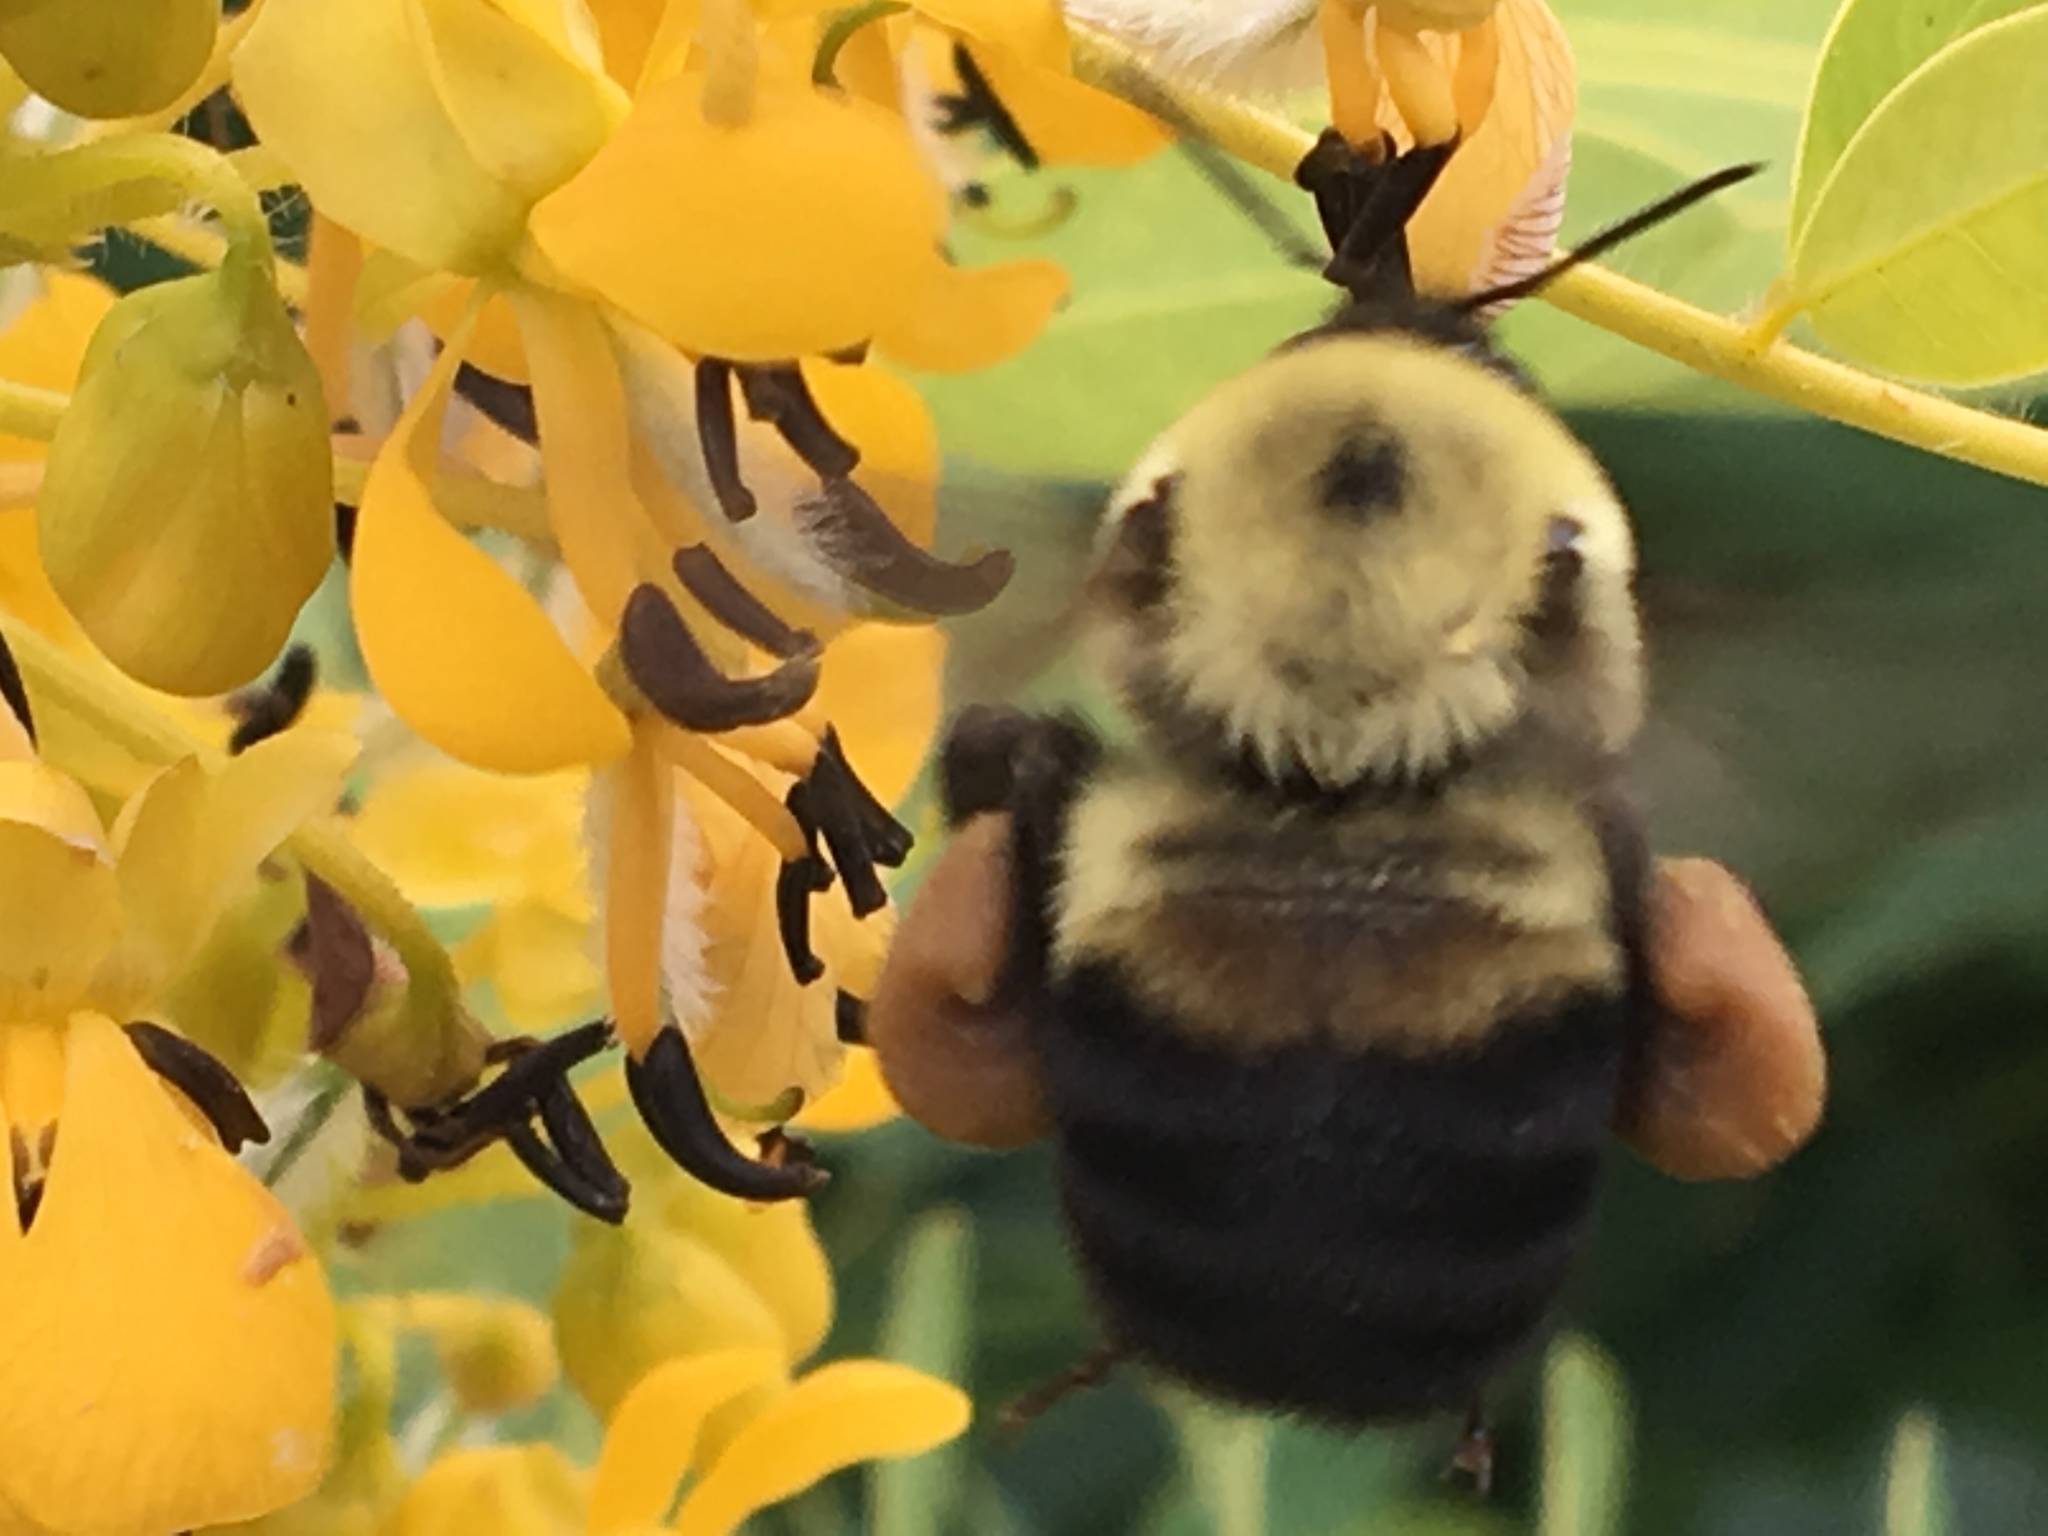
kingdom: Animalia
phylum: Arthropoda
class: Insecta
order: Hymenoptera
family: Apidae
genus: Bombus
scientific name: Bombus griseocollis
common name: Brown-belted bumble bee
